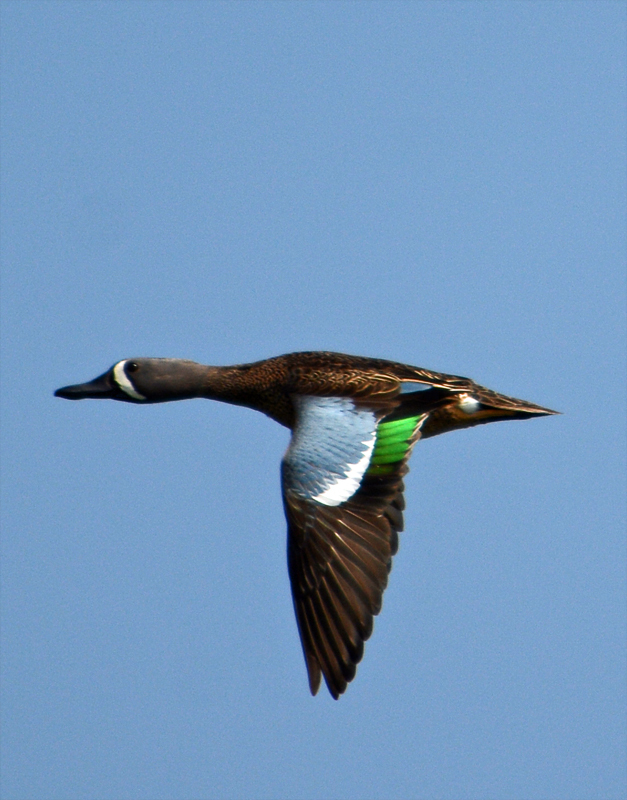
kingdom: Animalia
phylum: Chordata
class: Aves
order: Anseriformes
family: Anatidae
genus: Spatula
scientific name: Spatula discors
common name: Blue-winged teal
